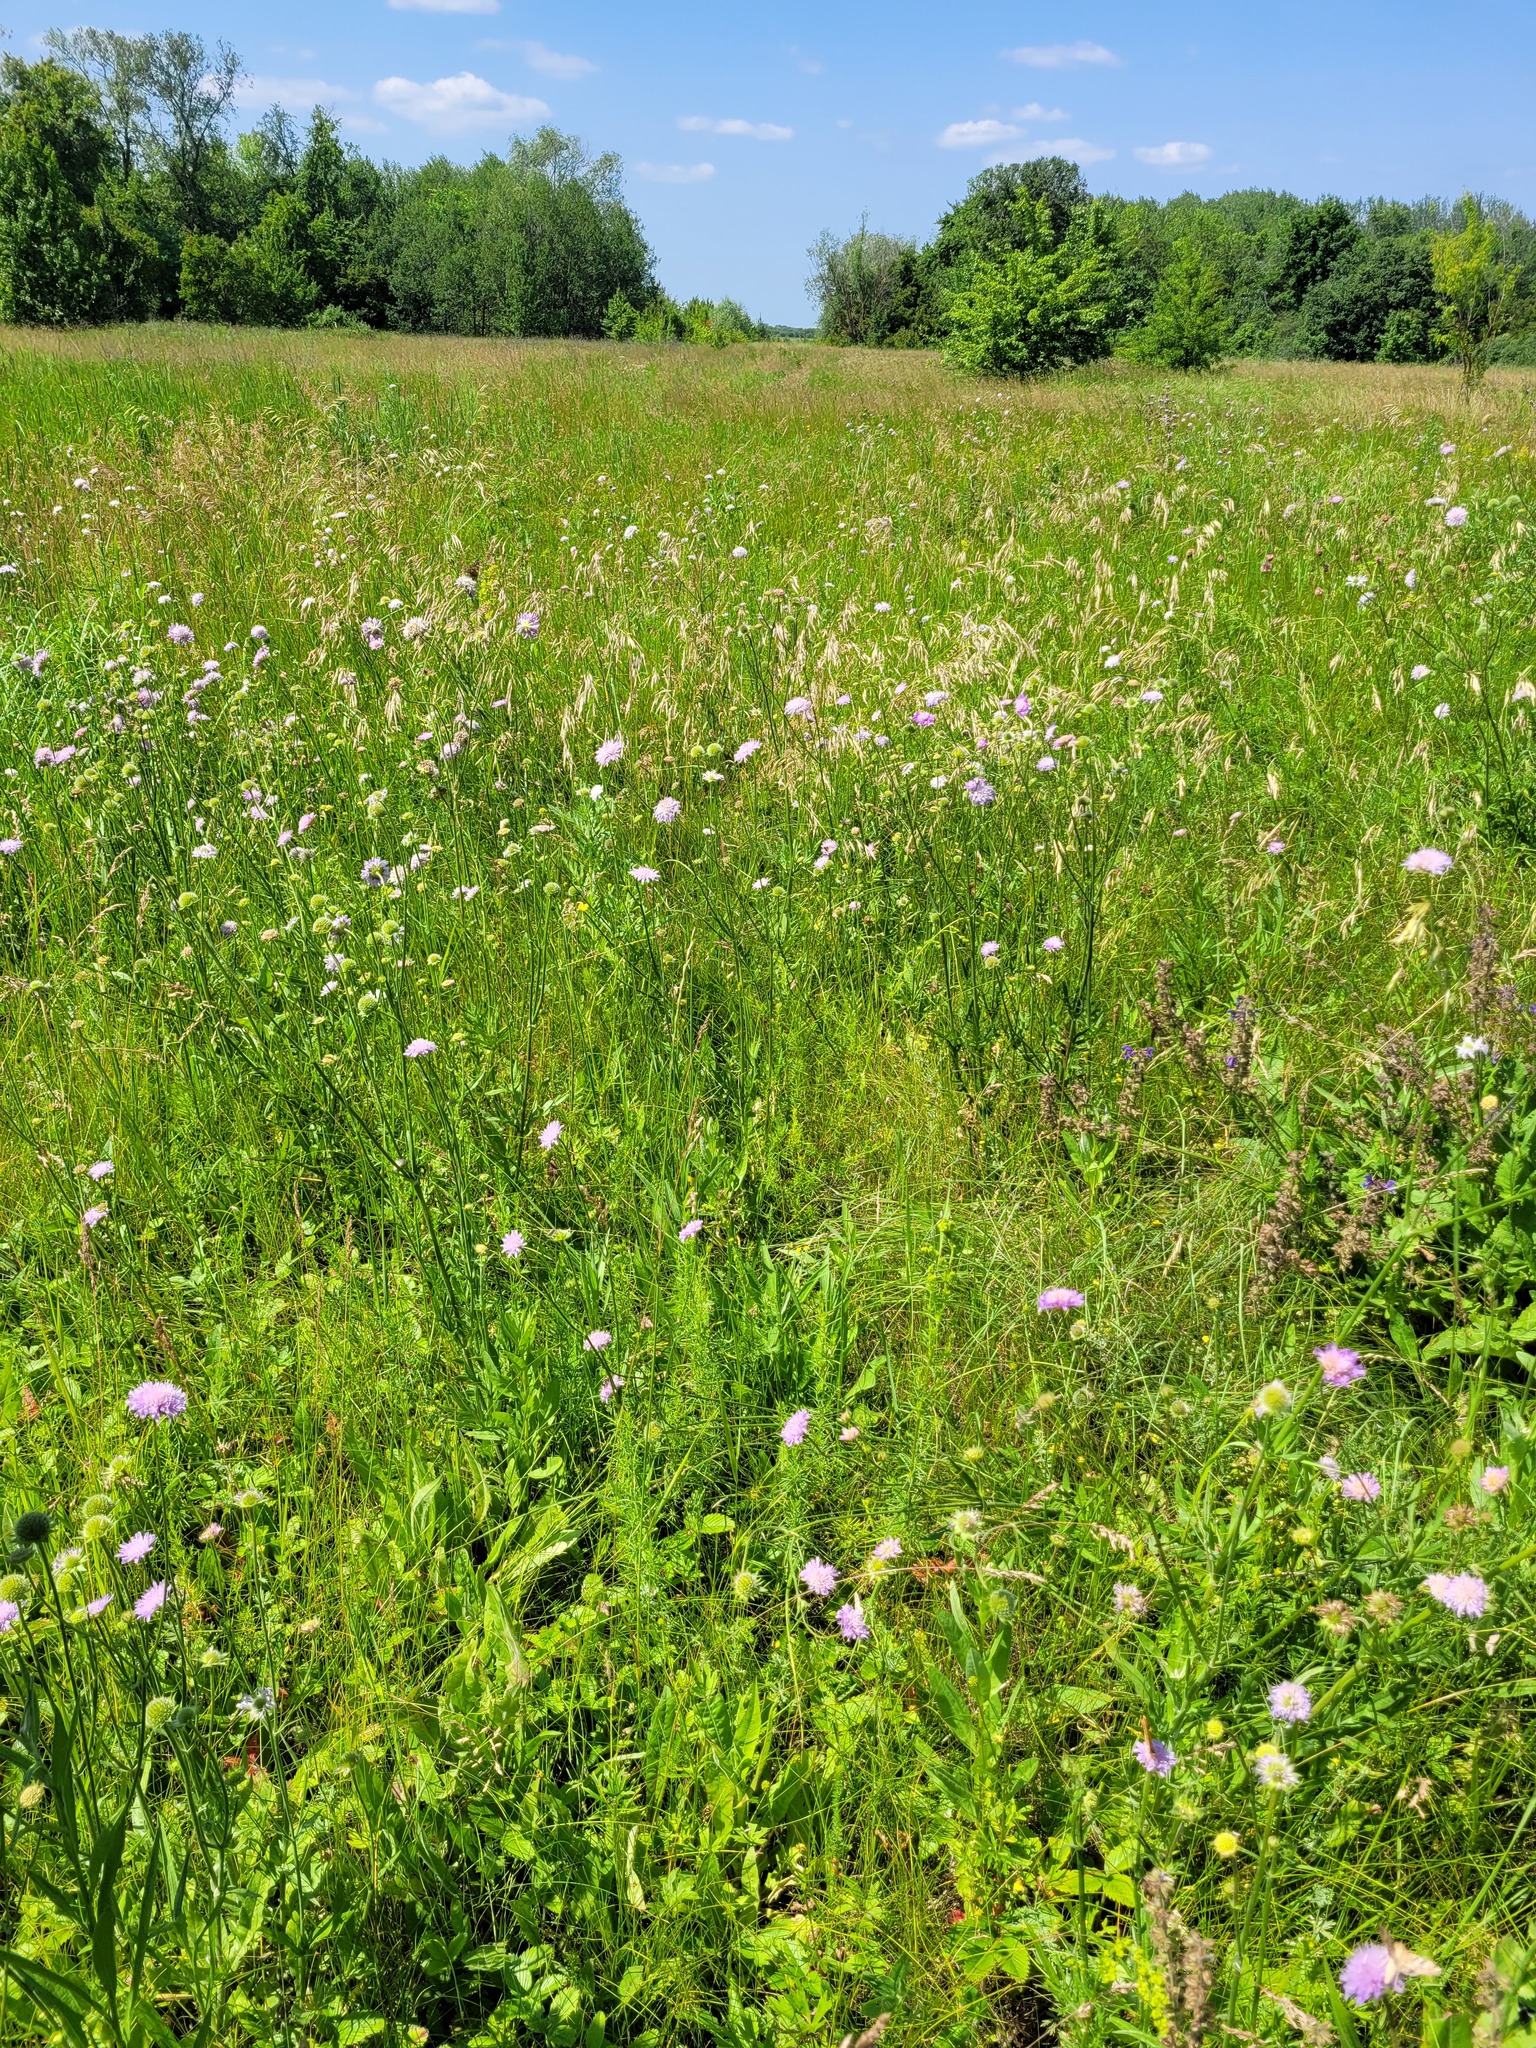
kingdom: Plantae
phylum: Tracheophyta
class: Magnoliopsida
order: Dipsacales
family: Caprifoliaceae
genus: Knautia
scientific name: Knautia arvensis
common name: Field scabiosa
